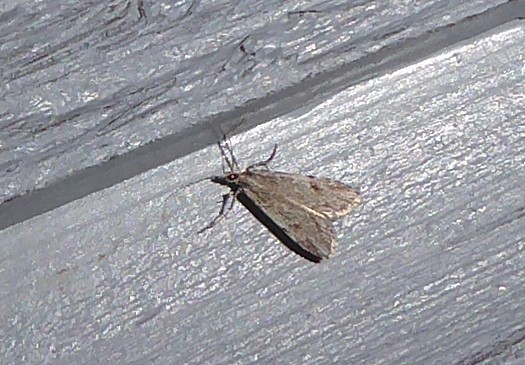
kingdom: Animalia
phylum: Arthropoda
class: Insecta
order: Lepidoptera
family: Crambidae
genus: Scoparia
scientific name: Scoparia chalicodes
